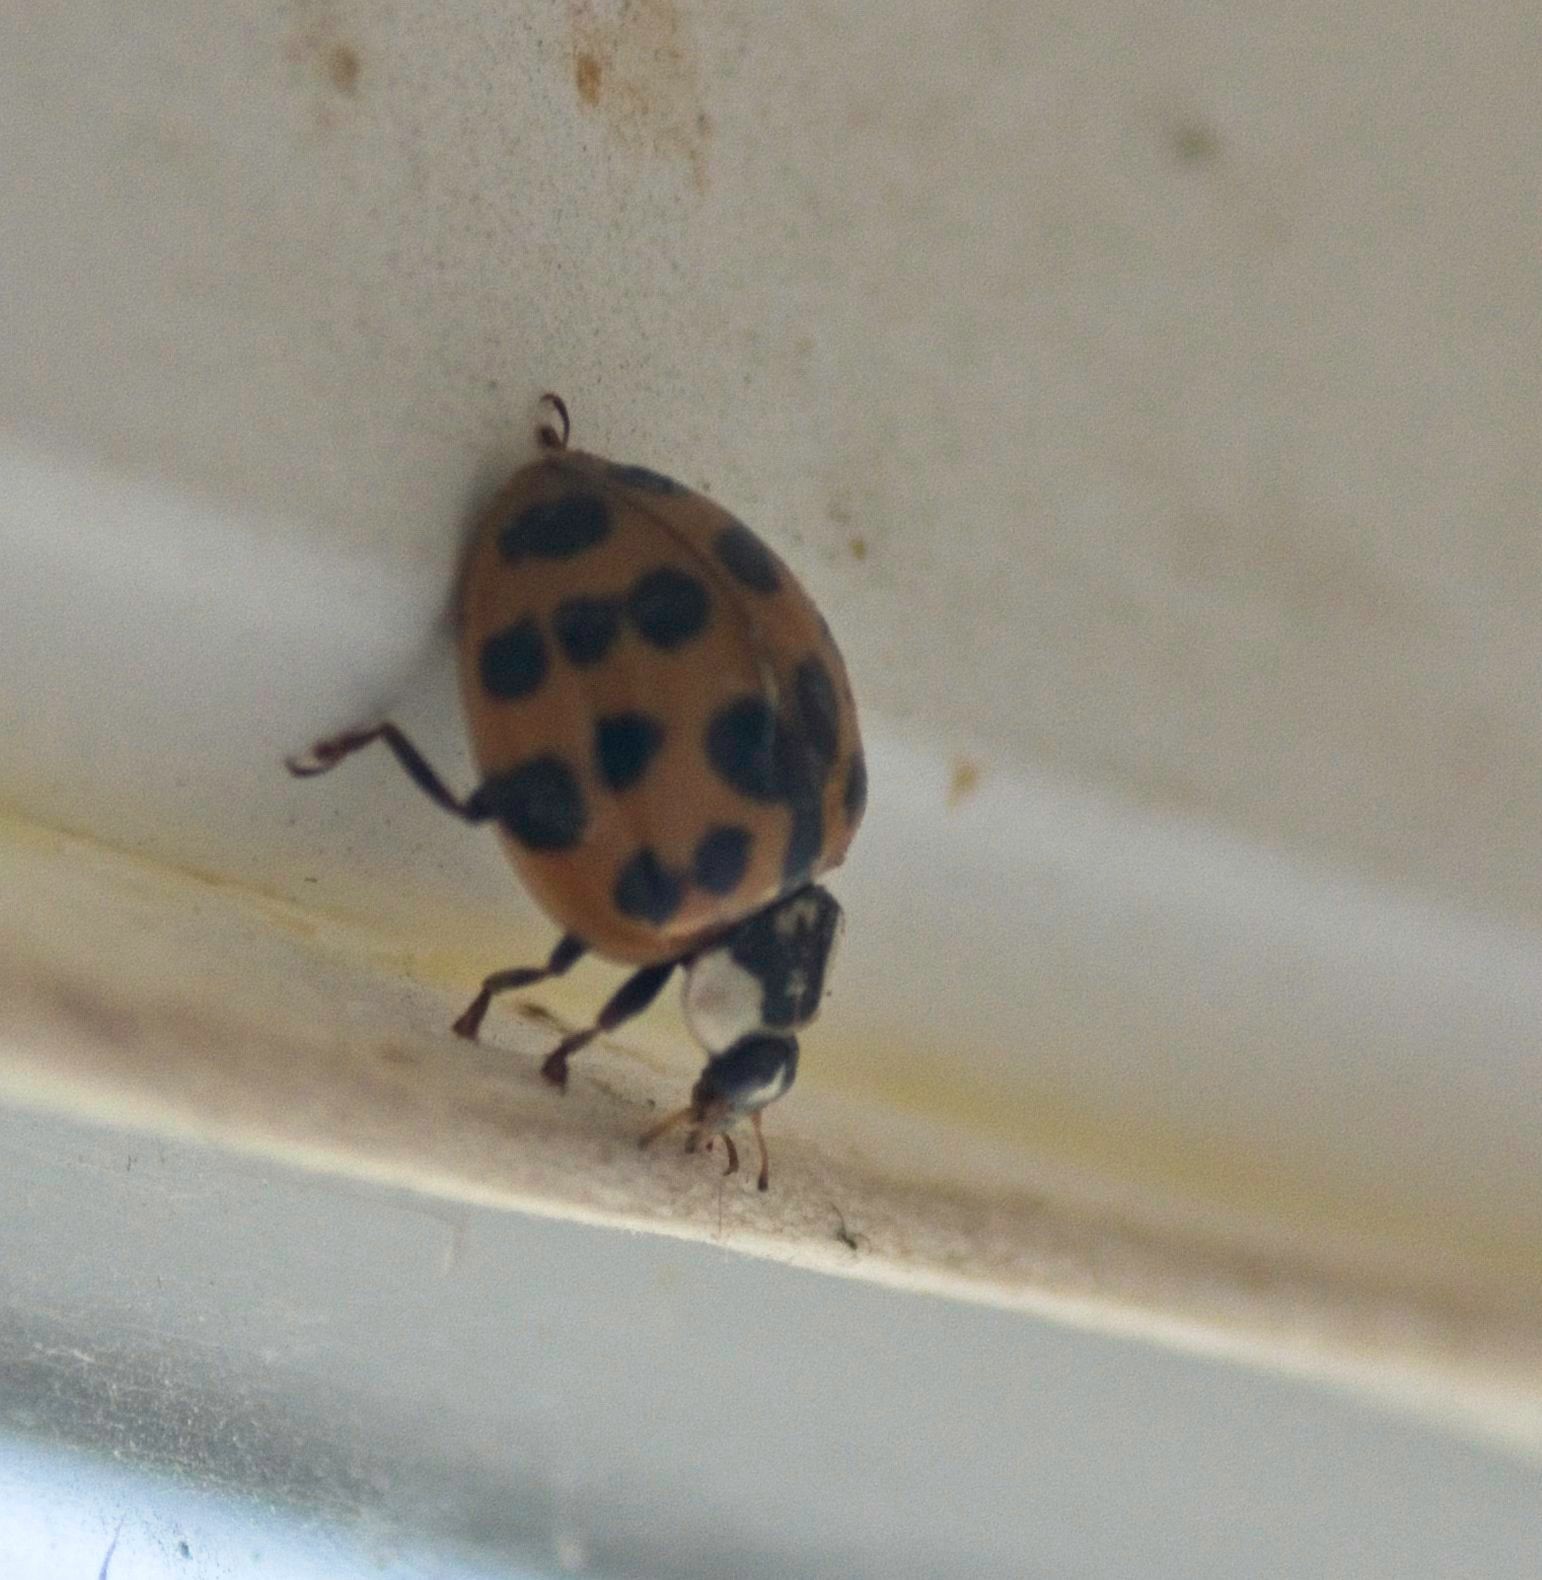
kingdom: Animalia
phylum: Arthropoda
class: Insecta
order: Coleoptera
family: Coccinellidae
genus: Harmonia
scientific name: Harmonia axyridis
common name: Harlequin ladybird
